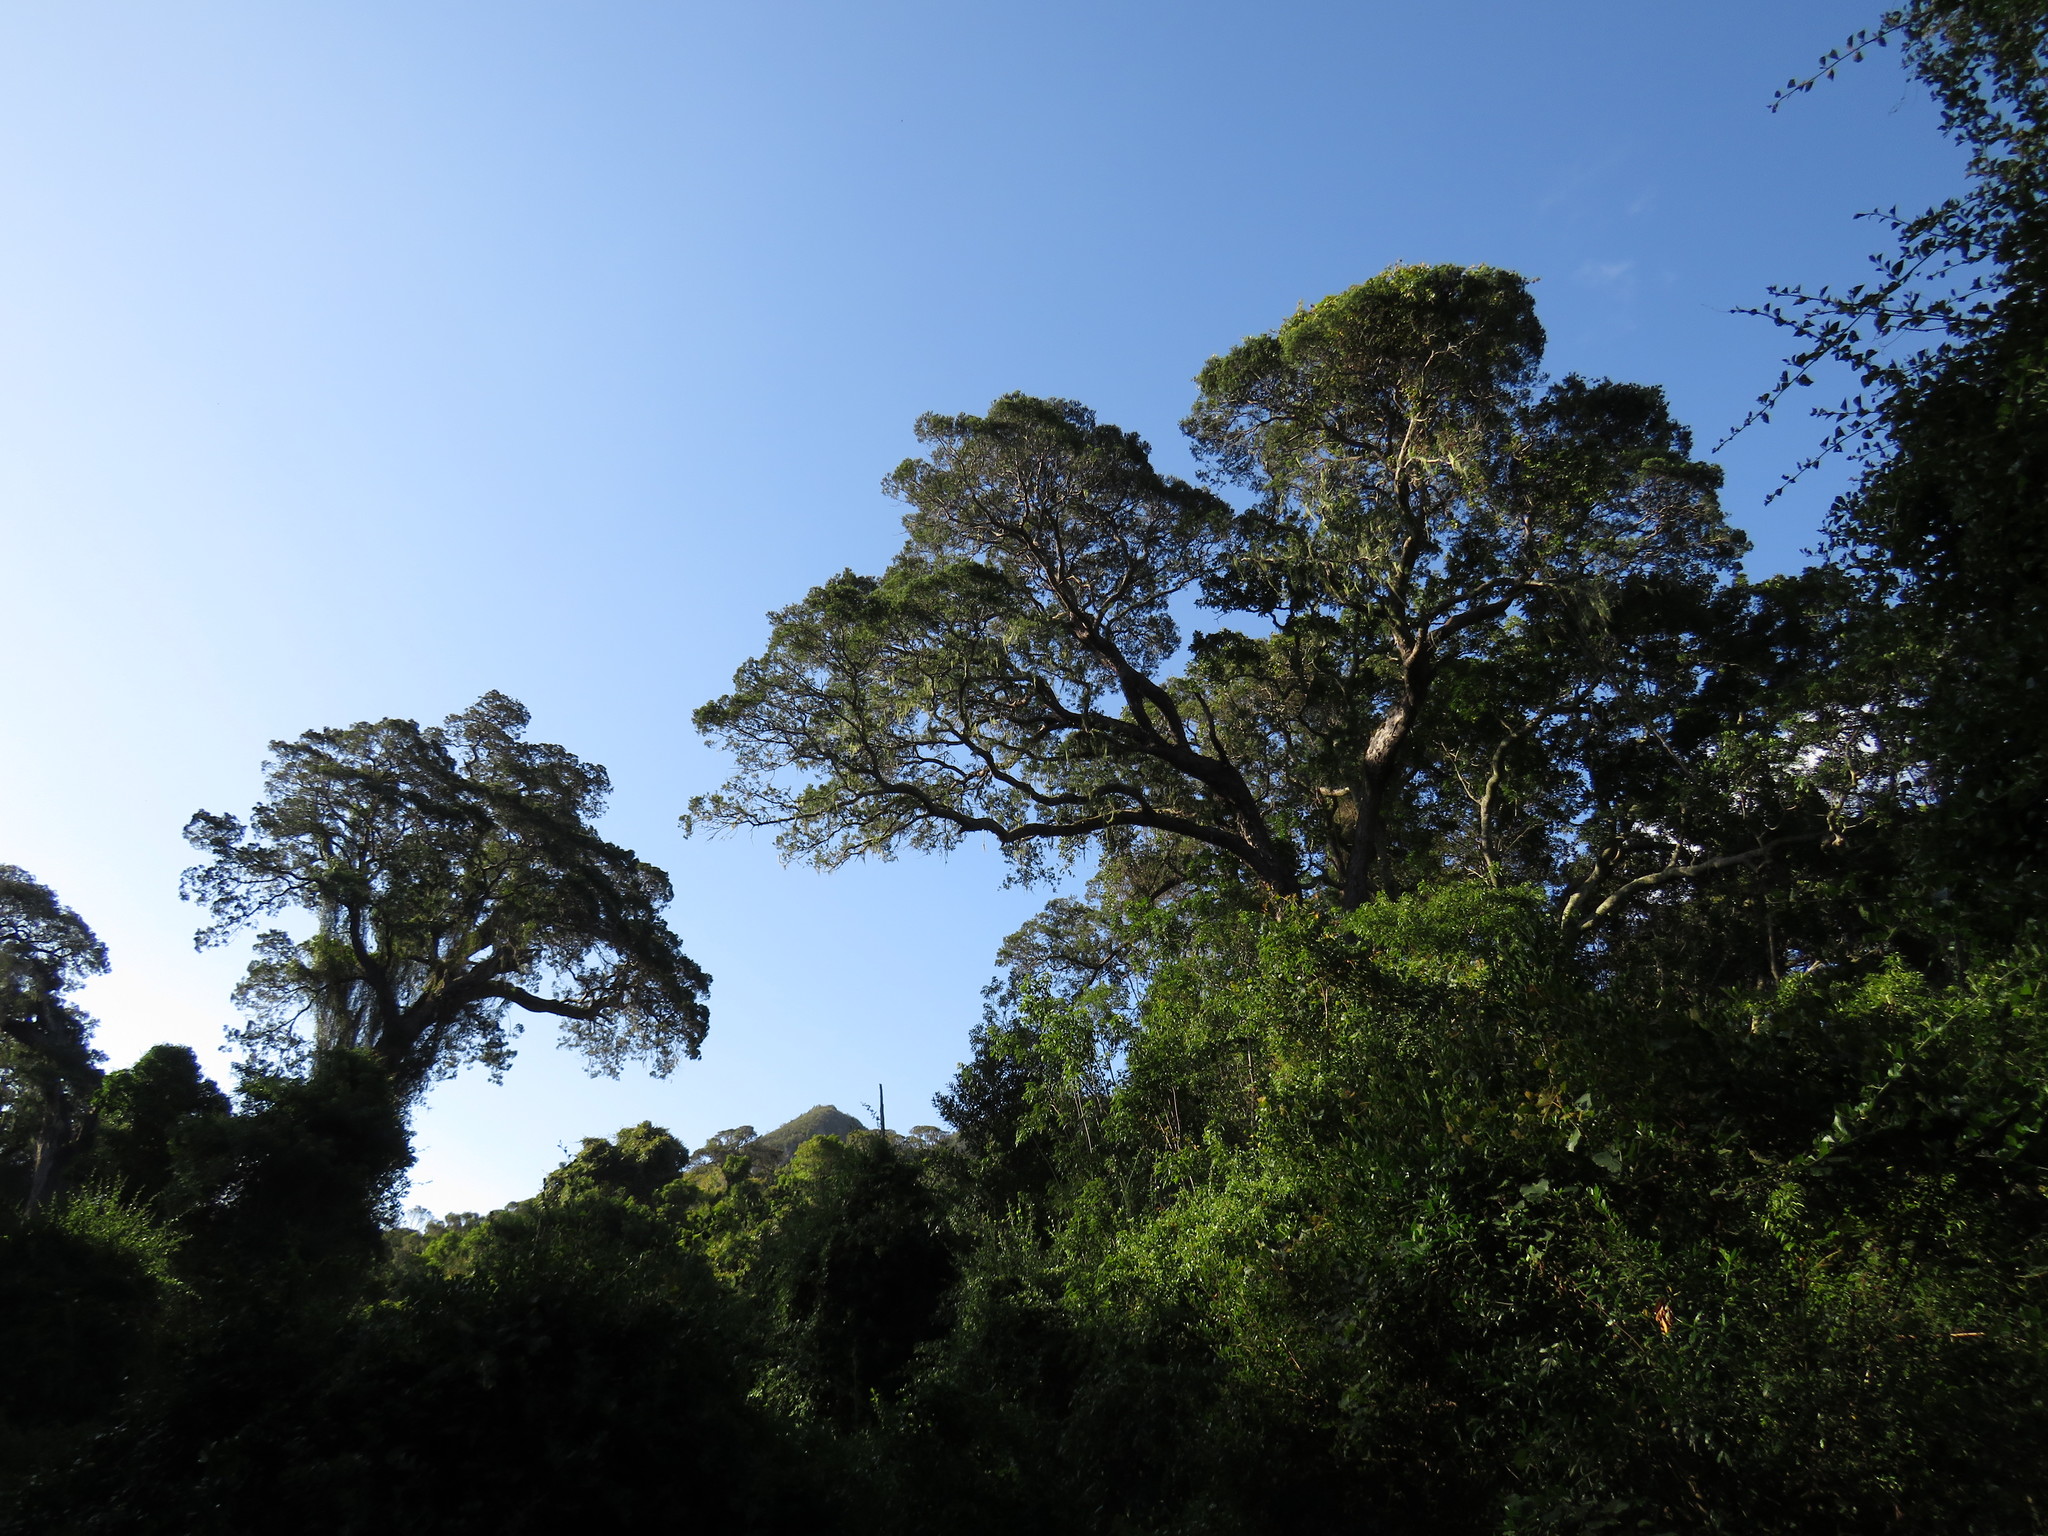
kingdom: Plantae
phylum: Tracheophyta
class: Pinopsida
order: Pinales
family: Podocarpaceae
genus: Afrocarpus
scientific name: Afrocarpus falcatus
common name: Bastard yellowwood
